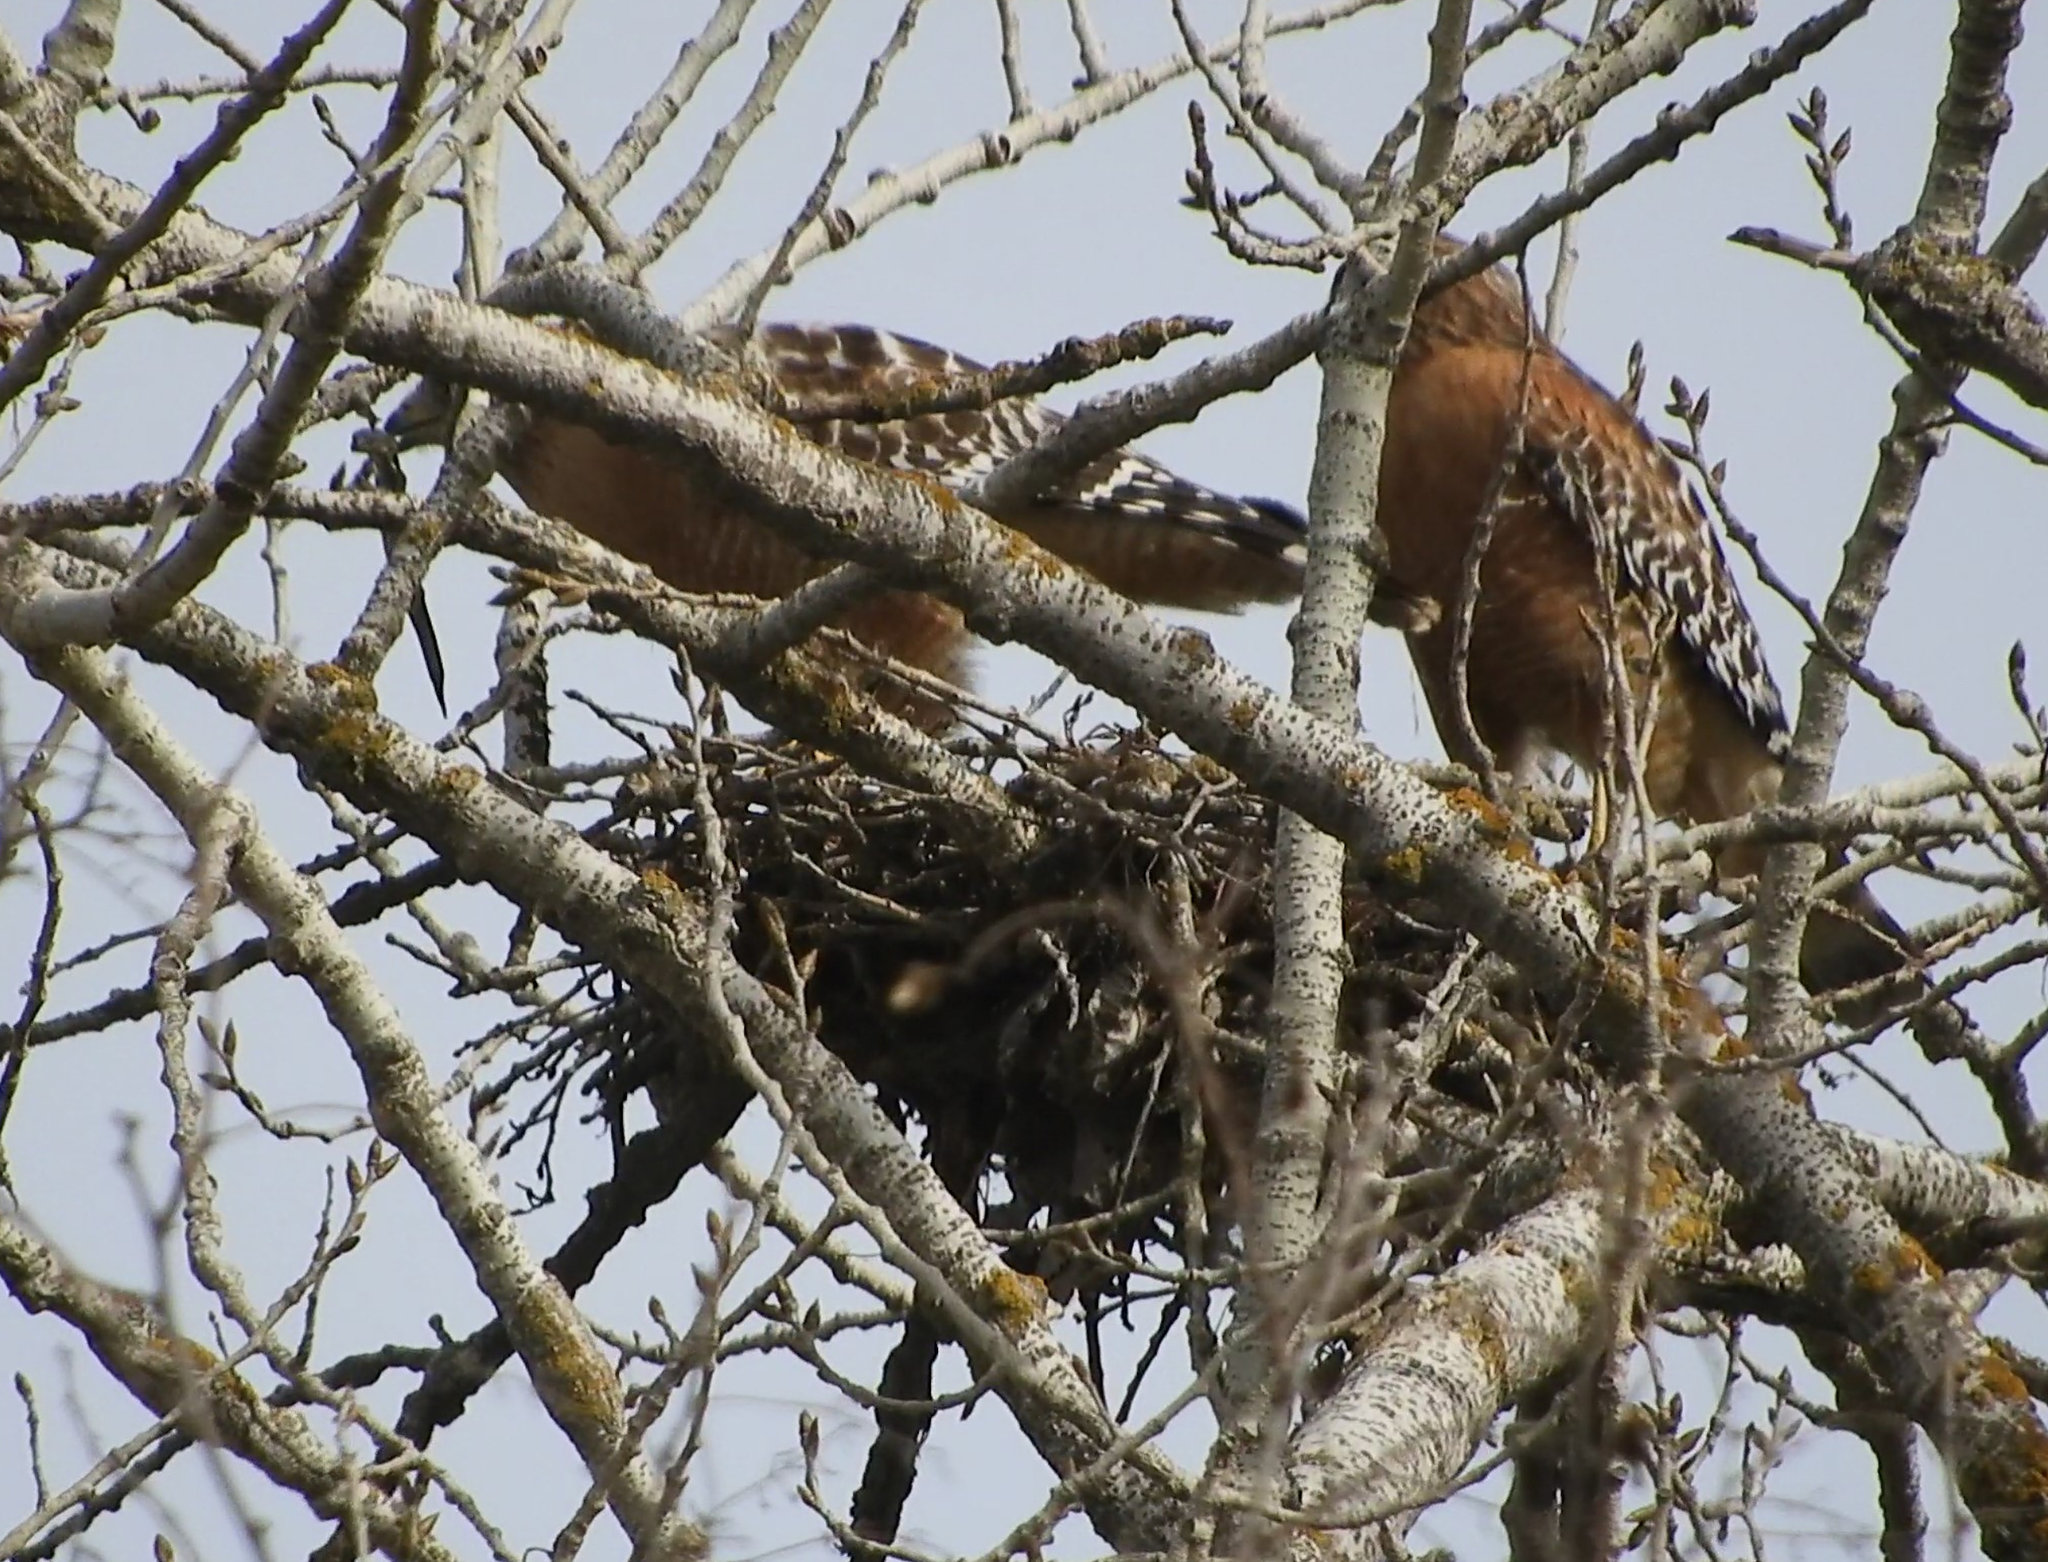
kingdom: Animalia
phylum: Chordata
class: Aves
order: Accipitriformes
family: Accipitridae
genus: Buteo
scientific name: Buteo lineatus
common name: Red-shouldered hawk
